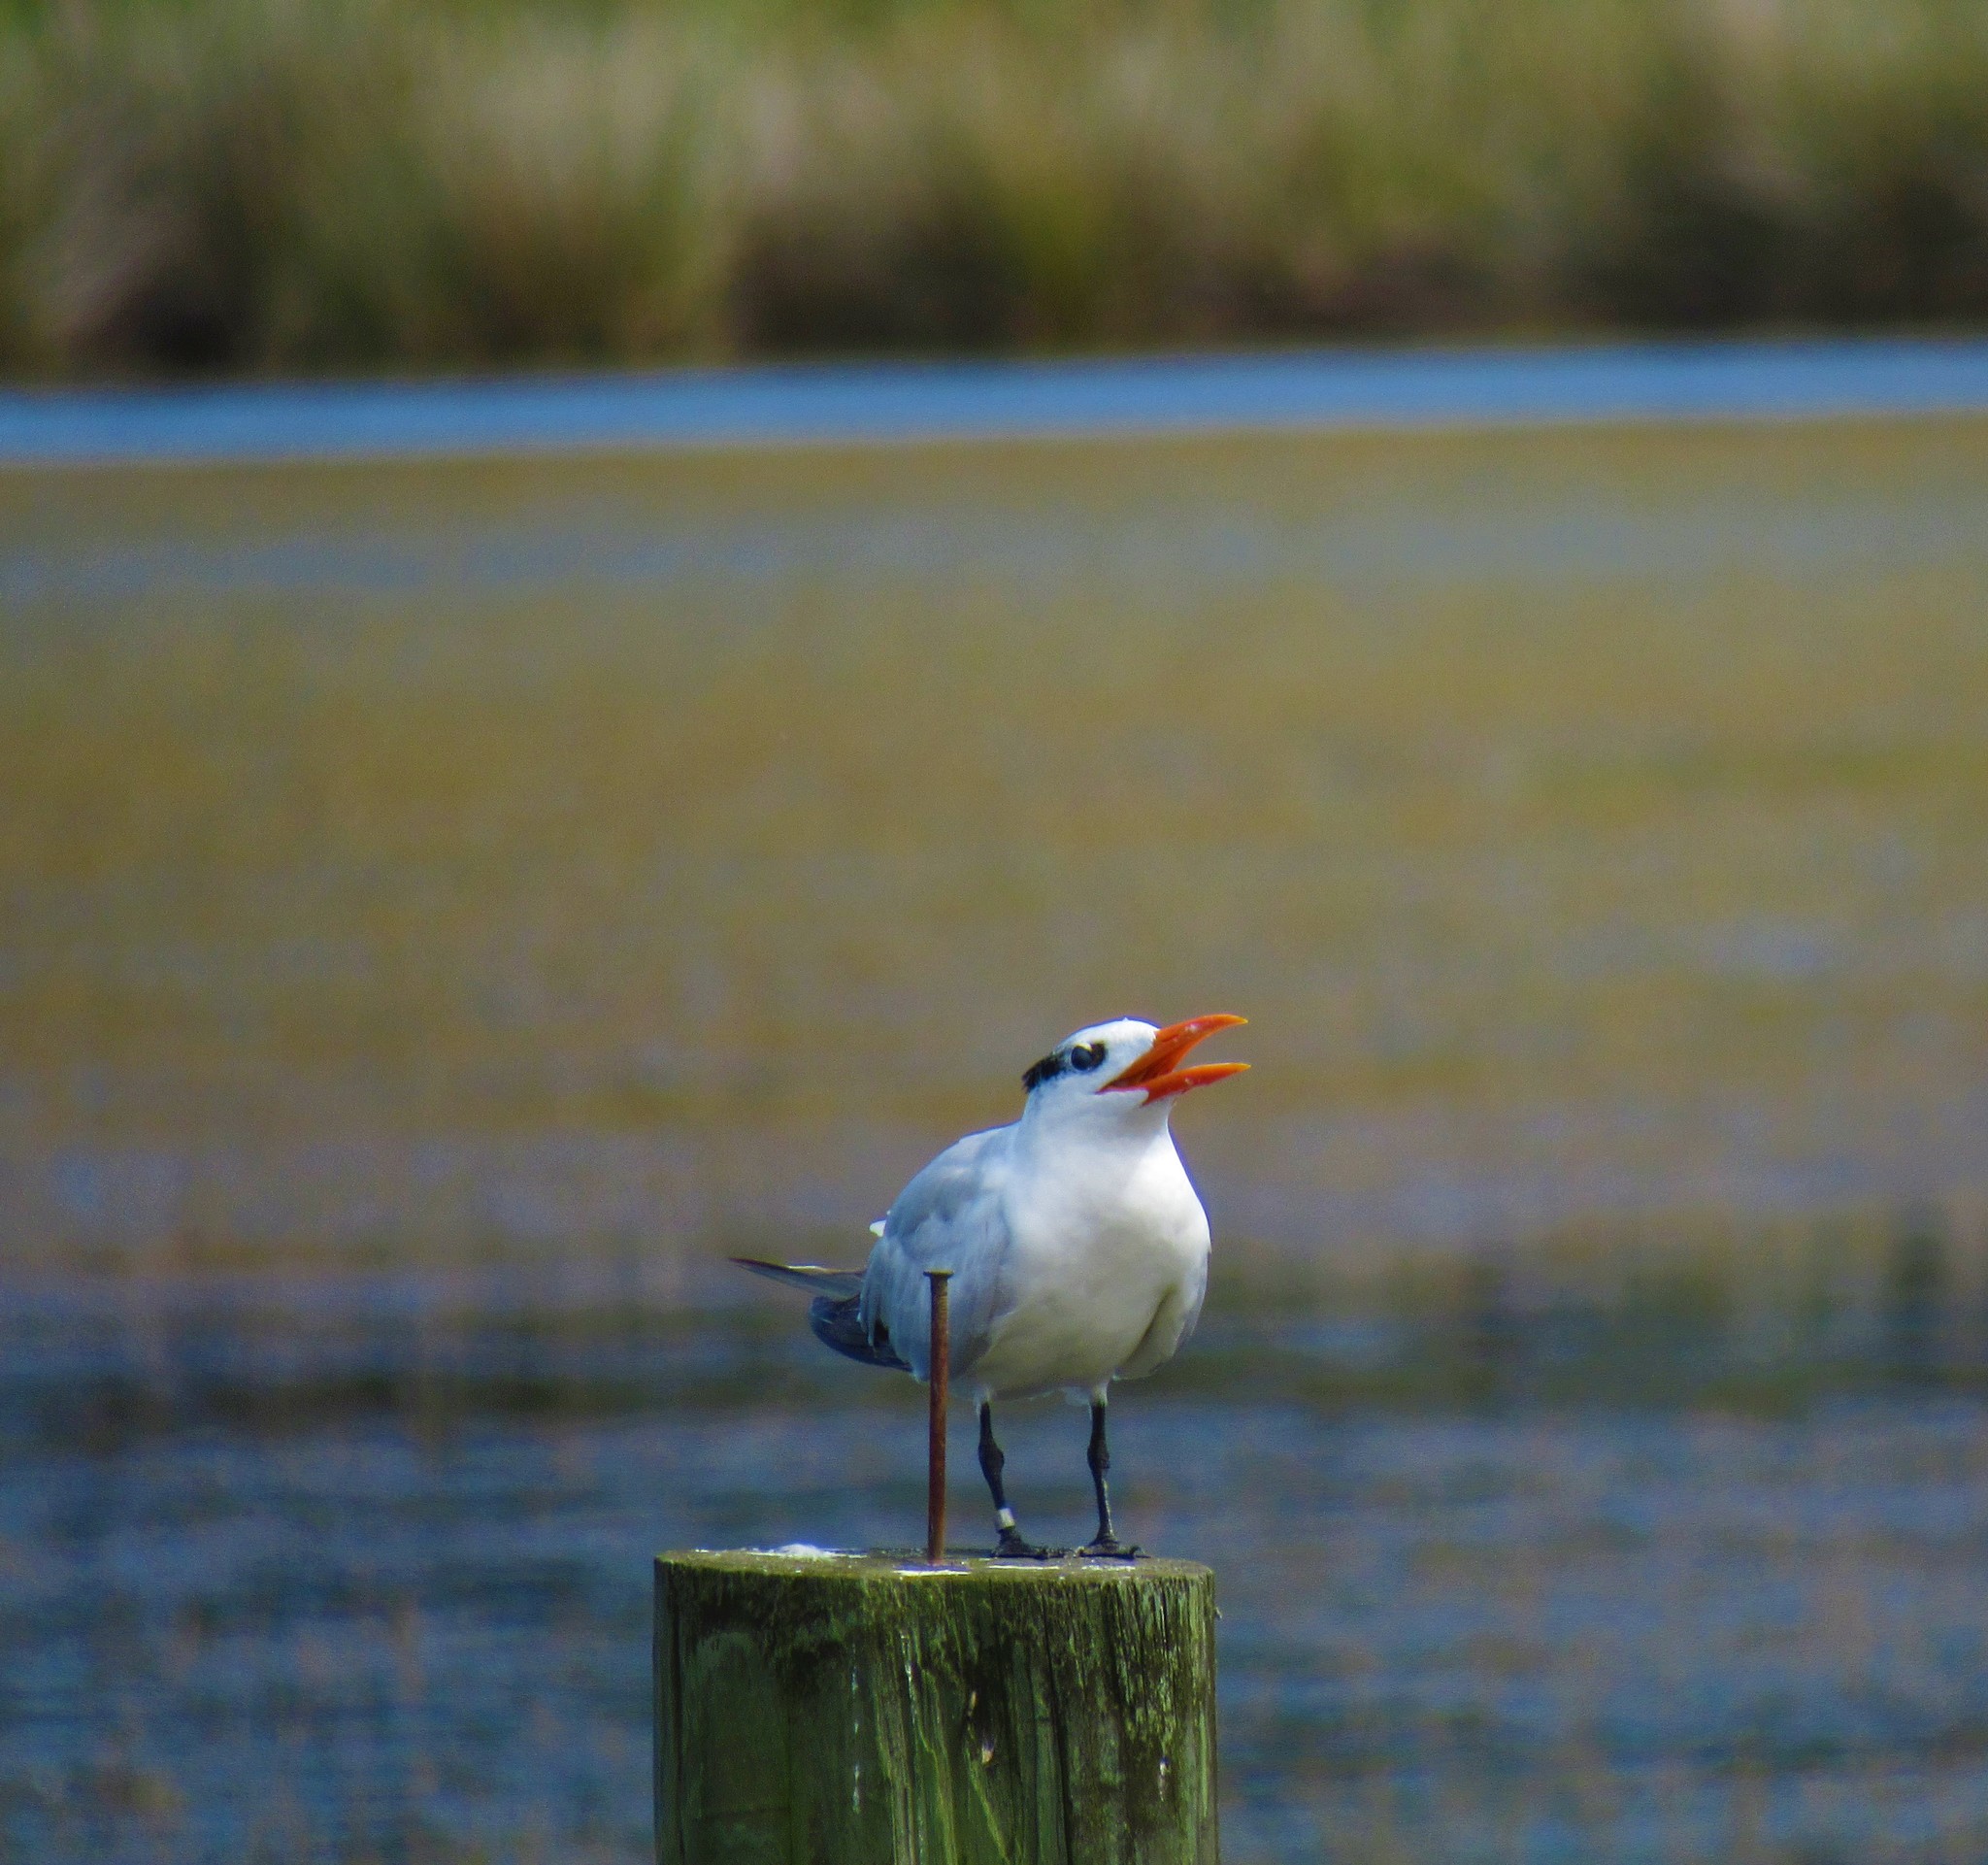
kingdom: Animalia
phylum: Chordata
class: Aves
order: Charadriiformes
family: Laridae
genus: Thalasseus
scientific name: Thalasseus maximus
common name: Royal tern
